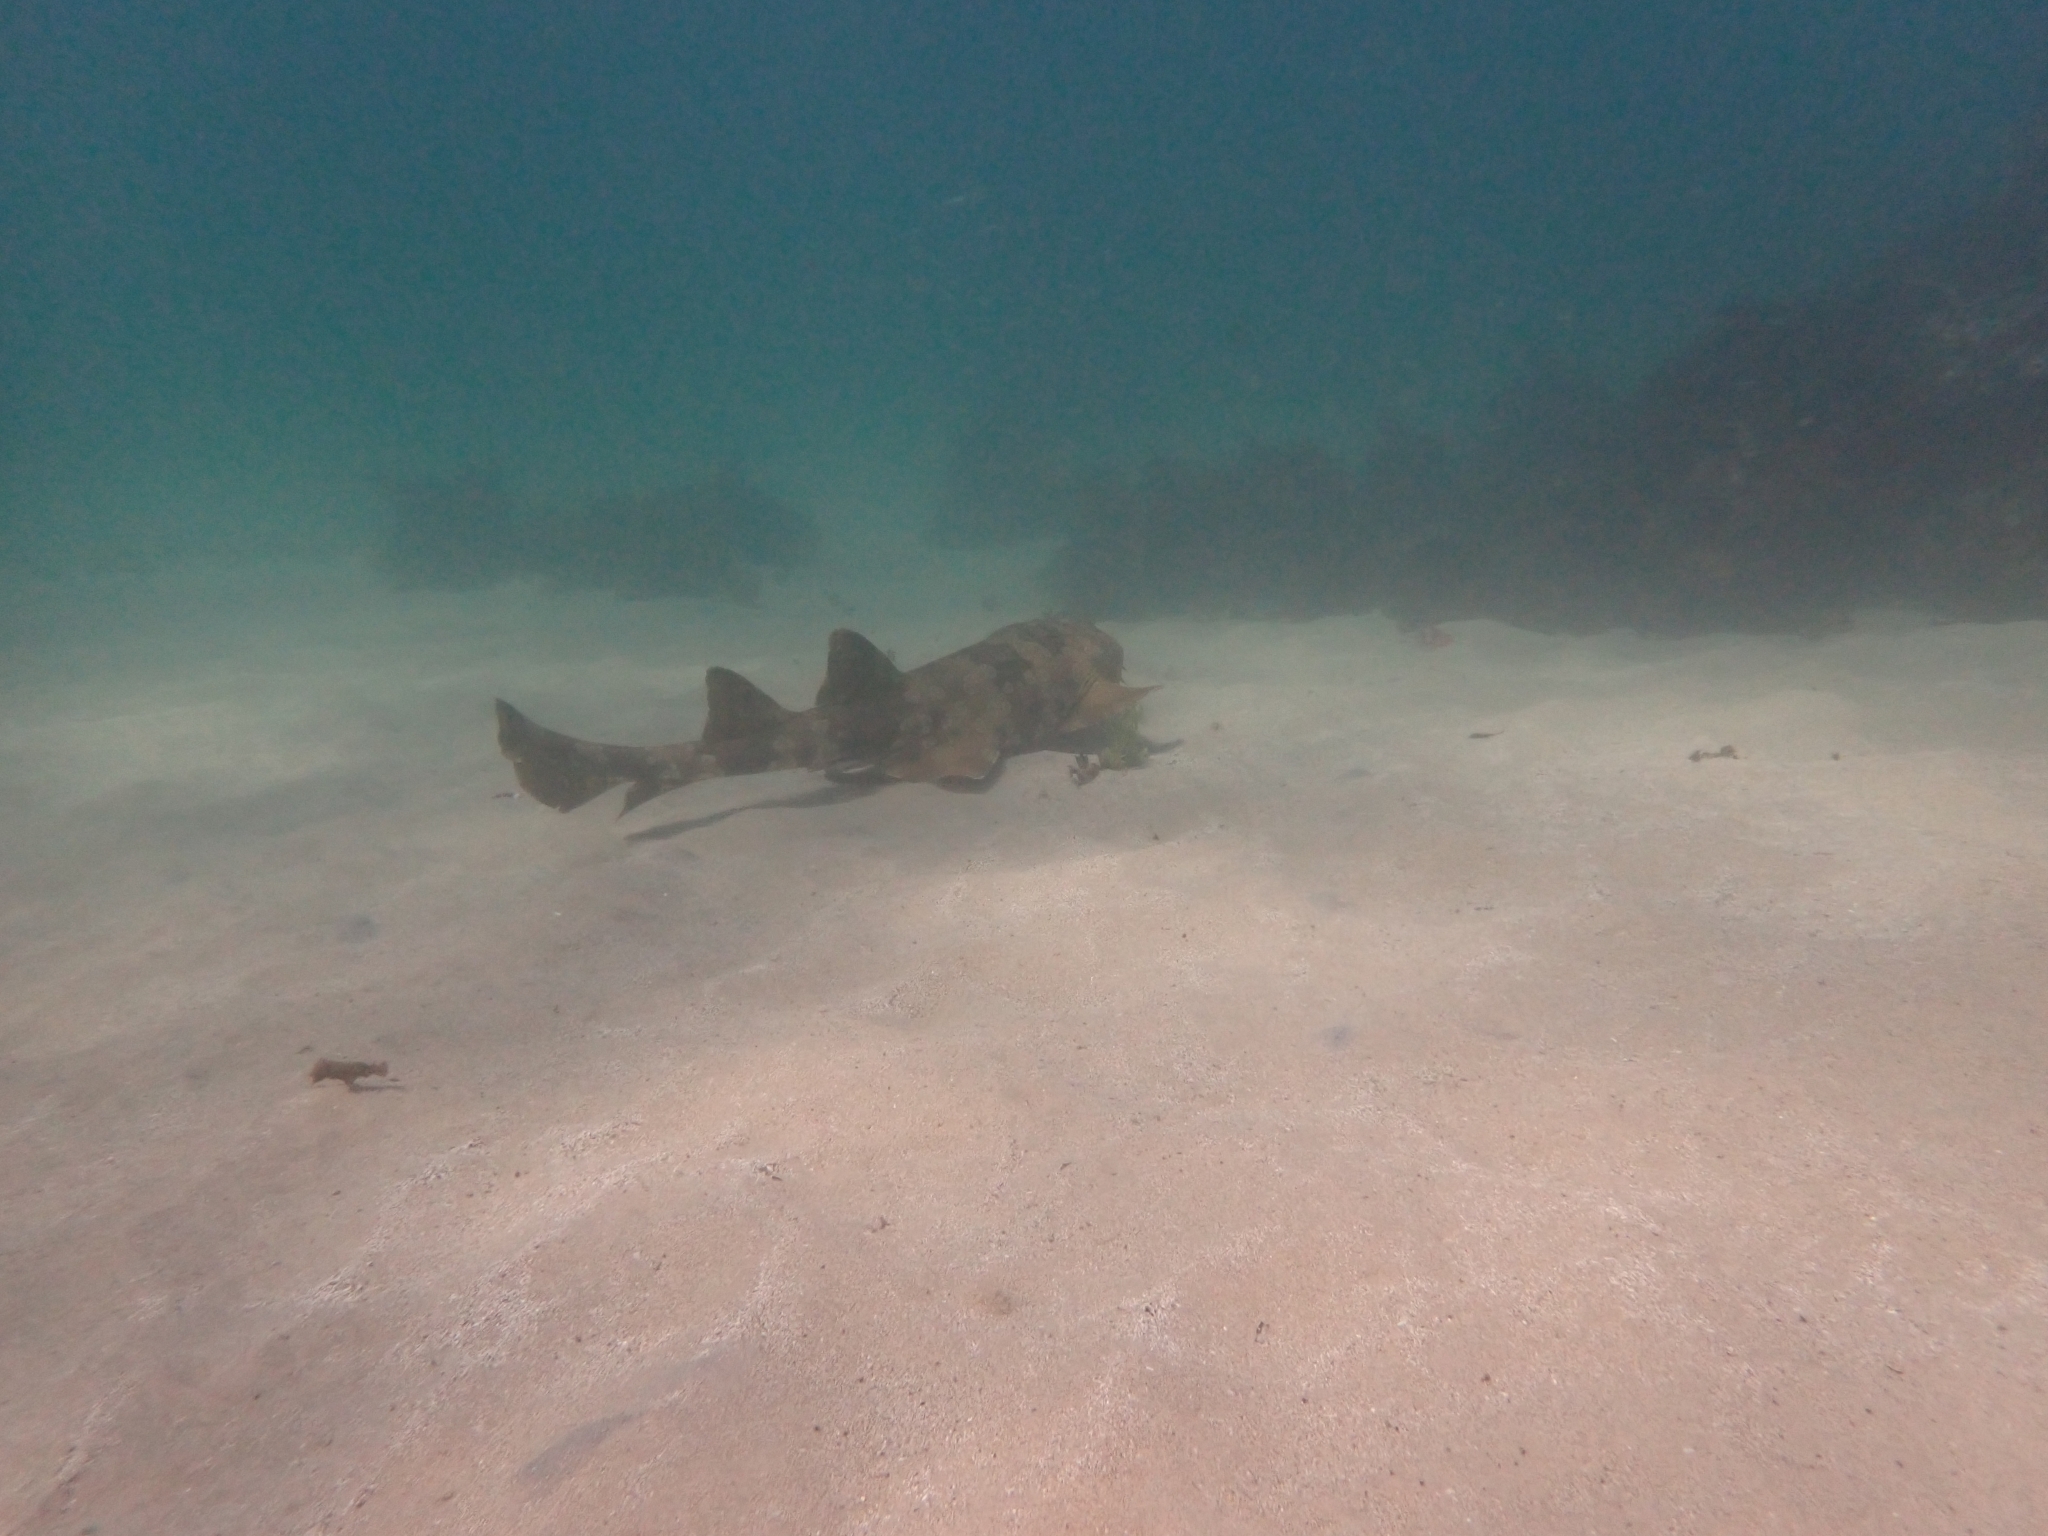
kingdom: Animalia
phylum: Chordata
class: Elasmobranchii
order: Orectolobiformes
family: Orectolobidae
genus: Orectolobus
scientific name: Orectolobus maculatus
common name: Spotted wobbegong
